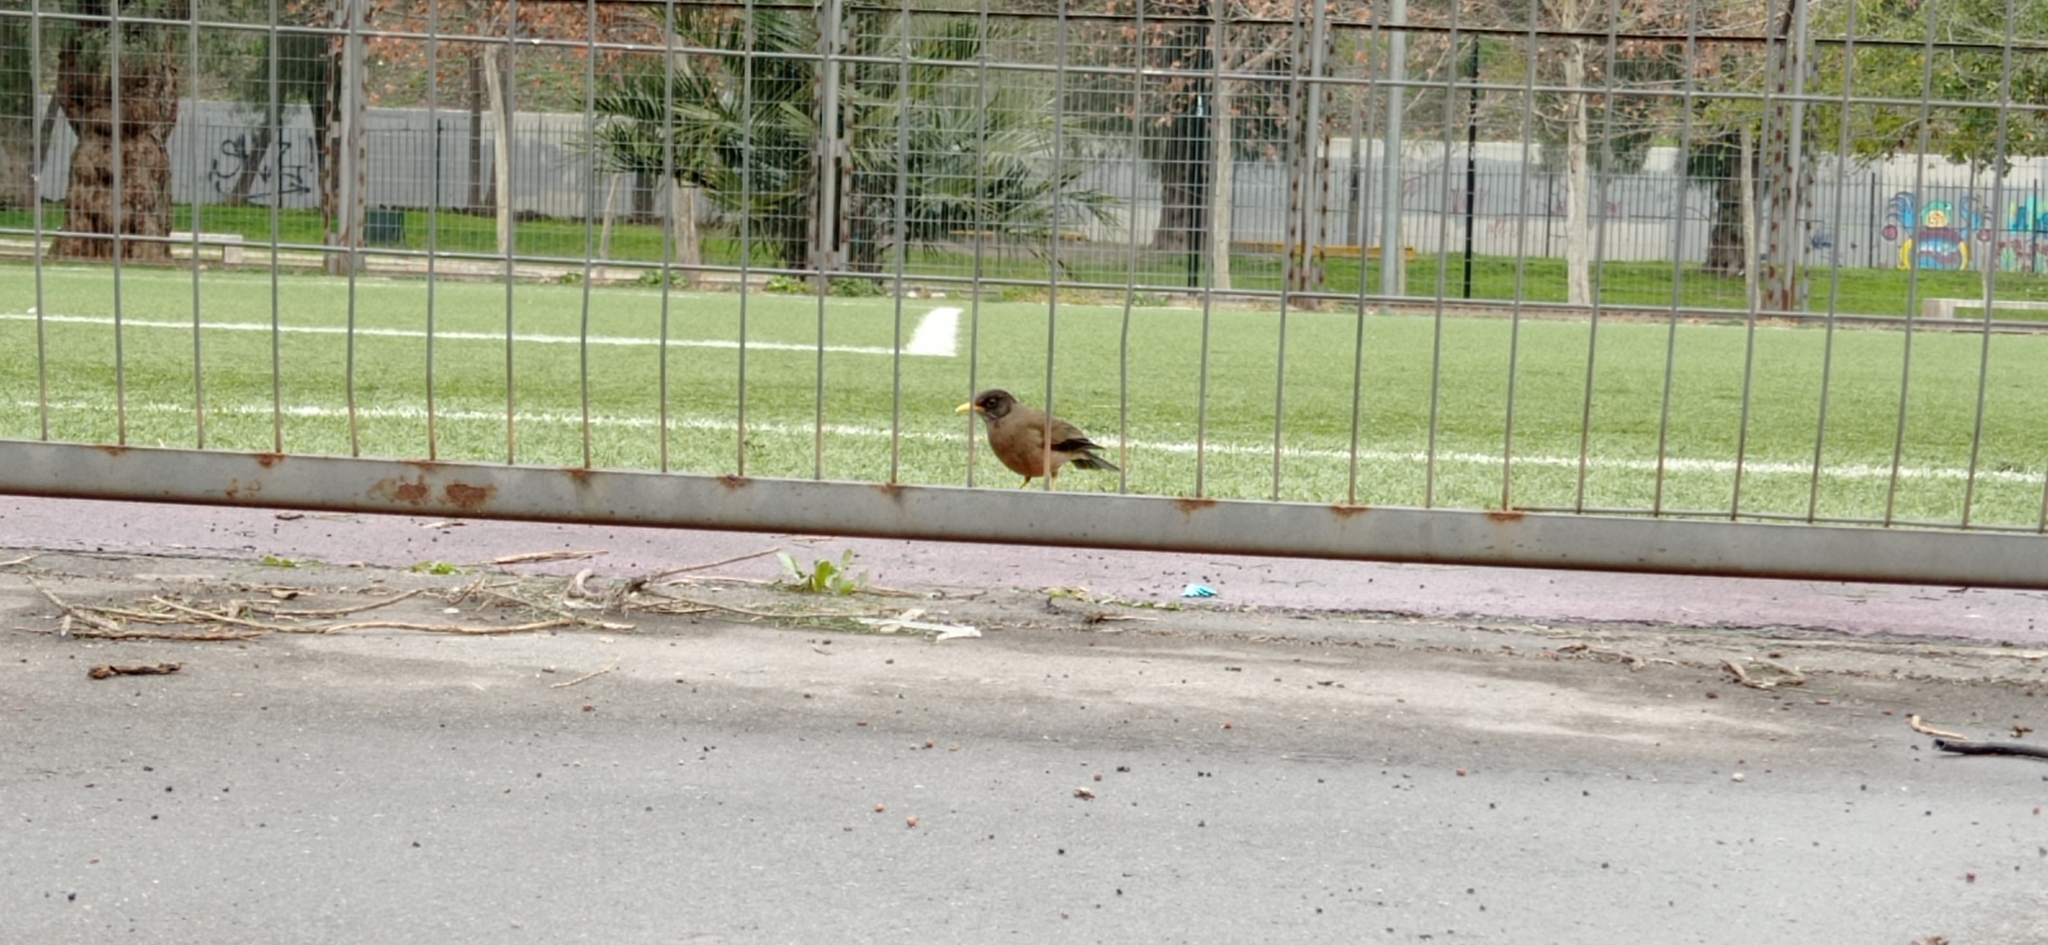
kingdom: Animalia
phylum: Chordata
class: Aves
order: Passeriformes
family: Turdidae
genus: Turdus
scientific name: Turdus falcklandii
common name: Austral thrush
